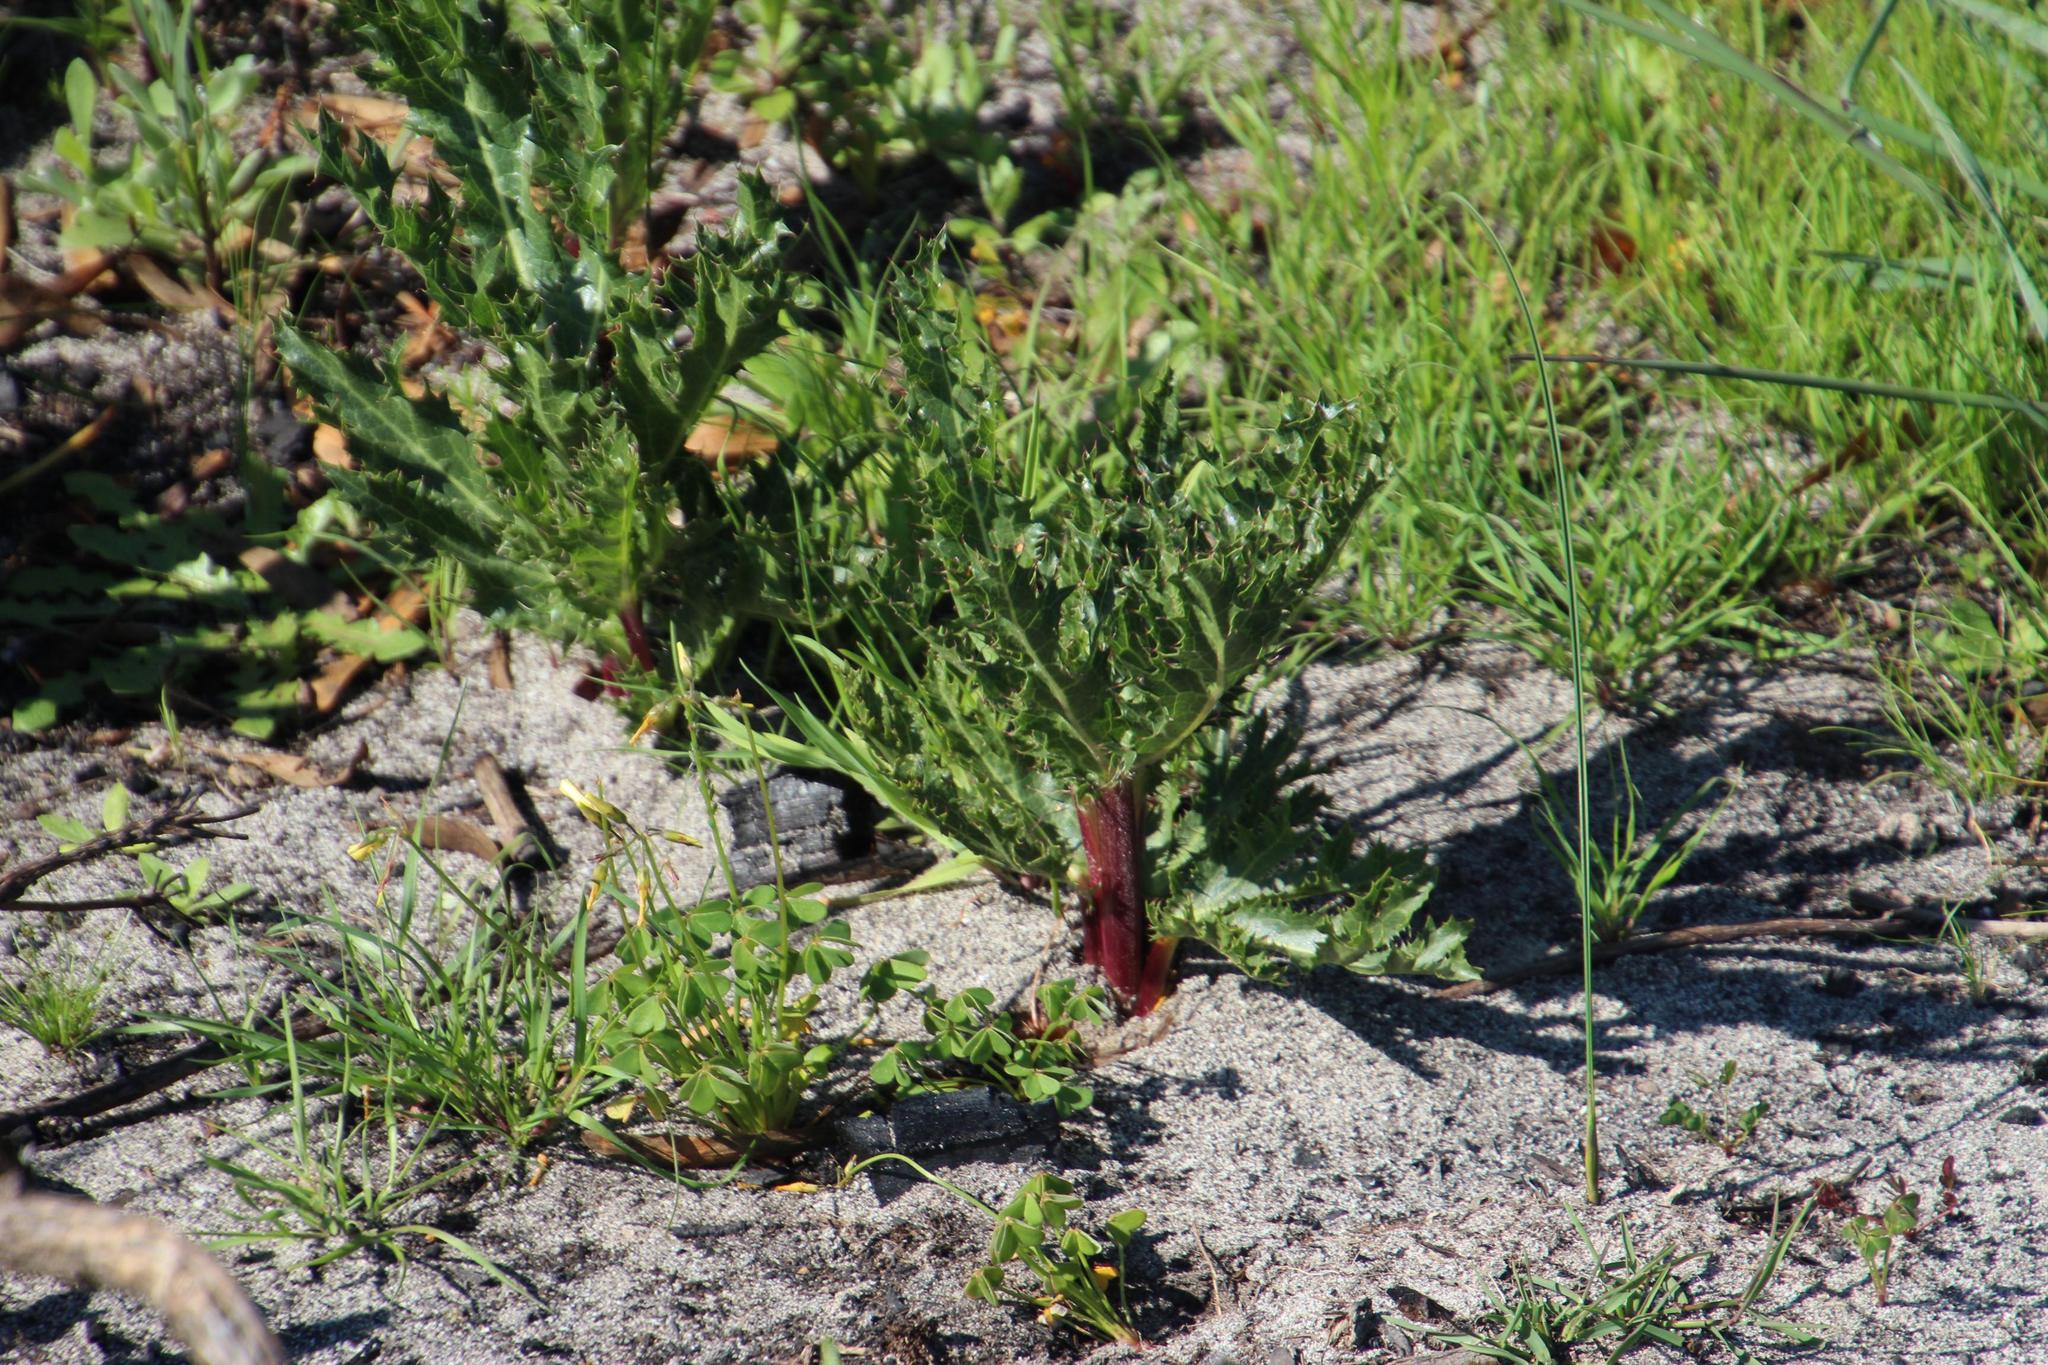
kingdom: Plantae
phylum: Tracheophyta
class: Magnoliopsida
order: Apiales
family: Apiaceae
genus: Lichtensteinia
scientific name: Lichtensteinia lacera
